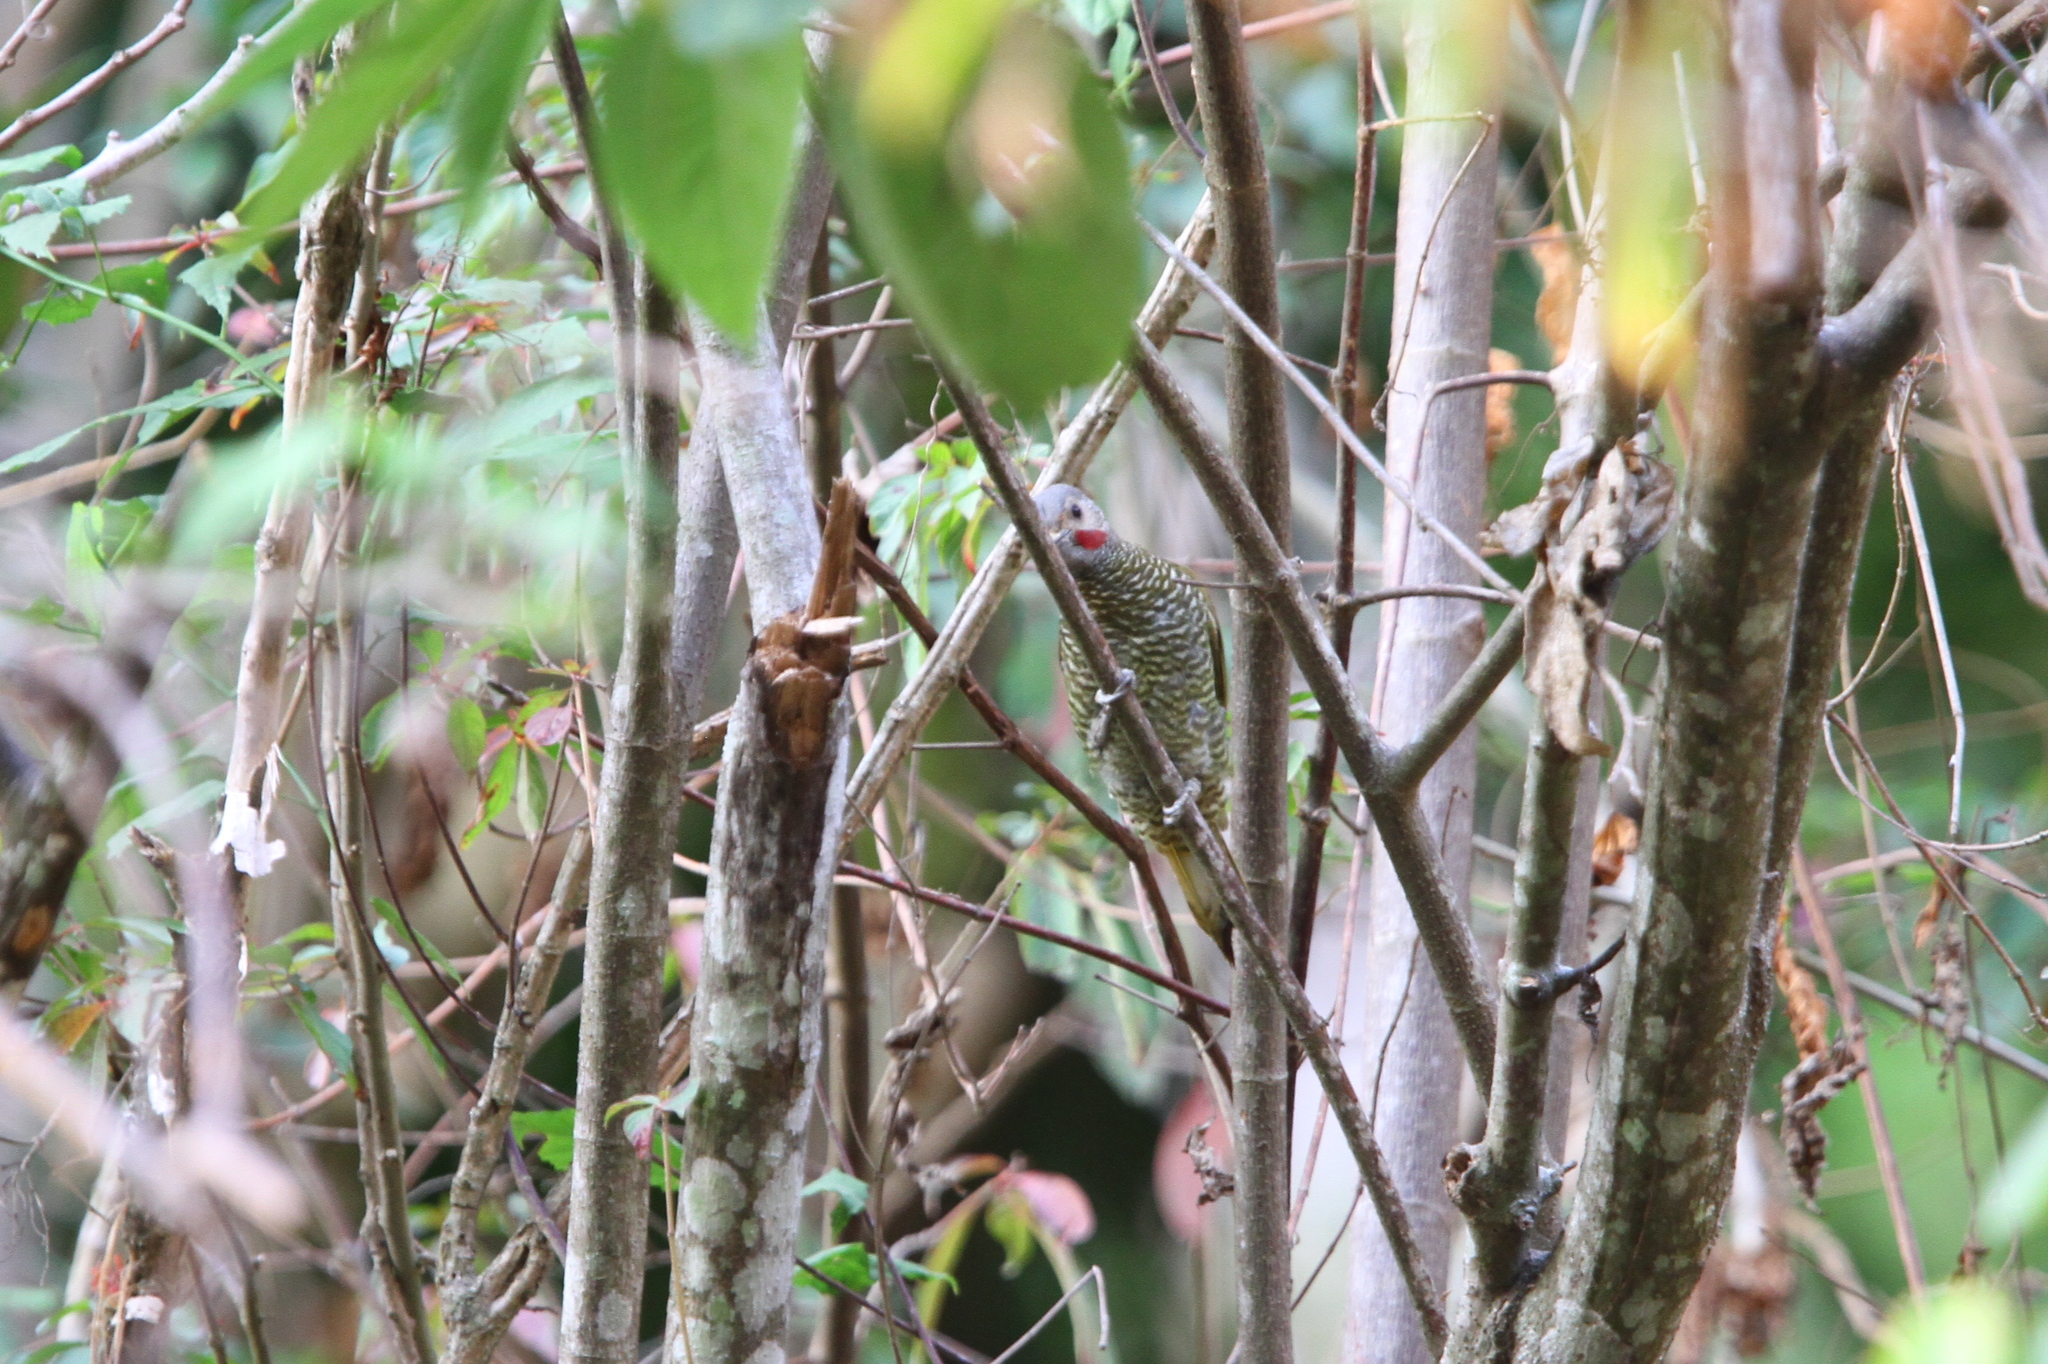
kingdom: Animalia
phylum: Chordata
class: Aves
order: Piciformes
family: Picidae
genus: Colaptes
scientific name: Colaptes auricularis
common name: Grey-crowned woodpecker
